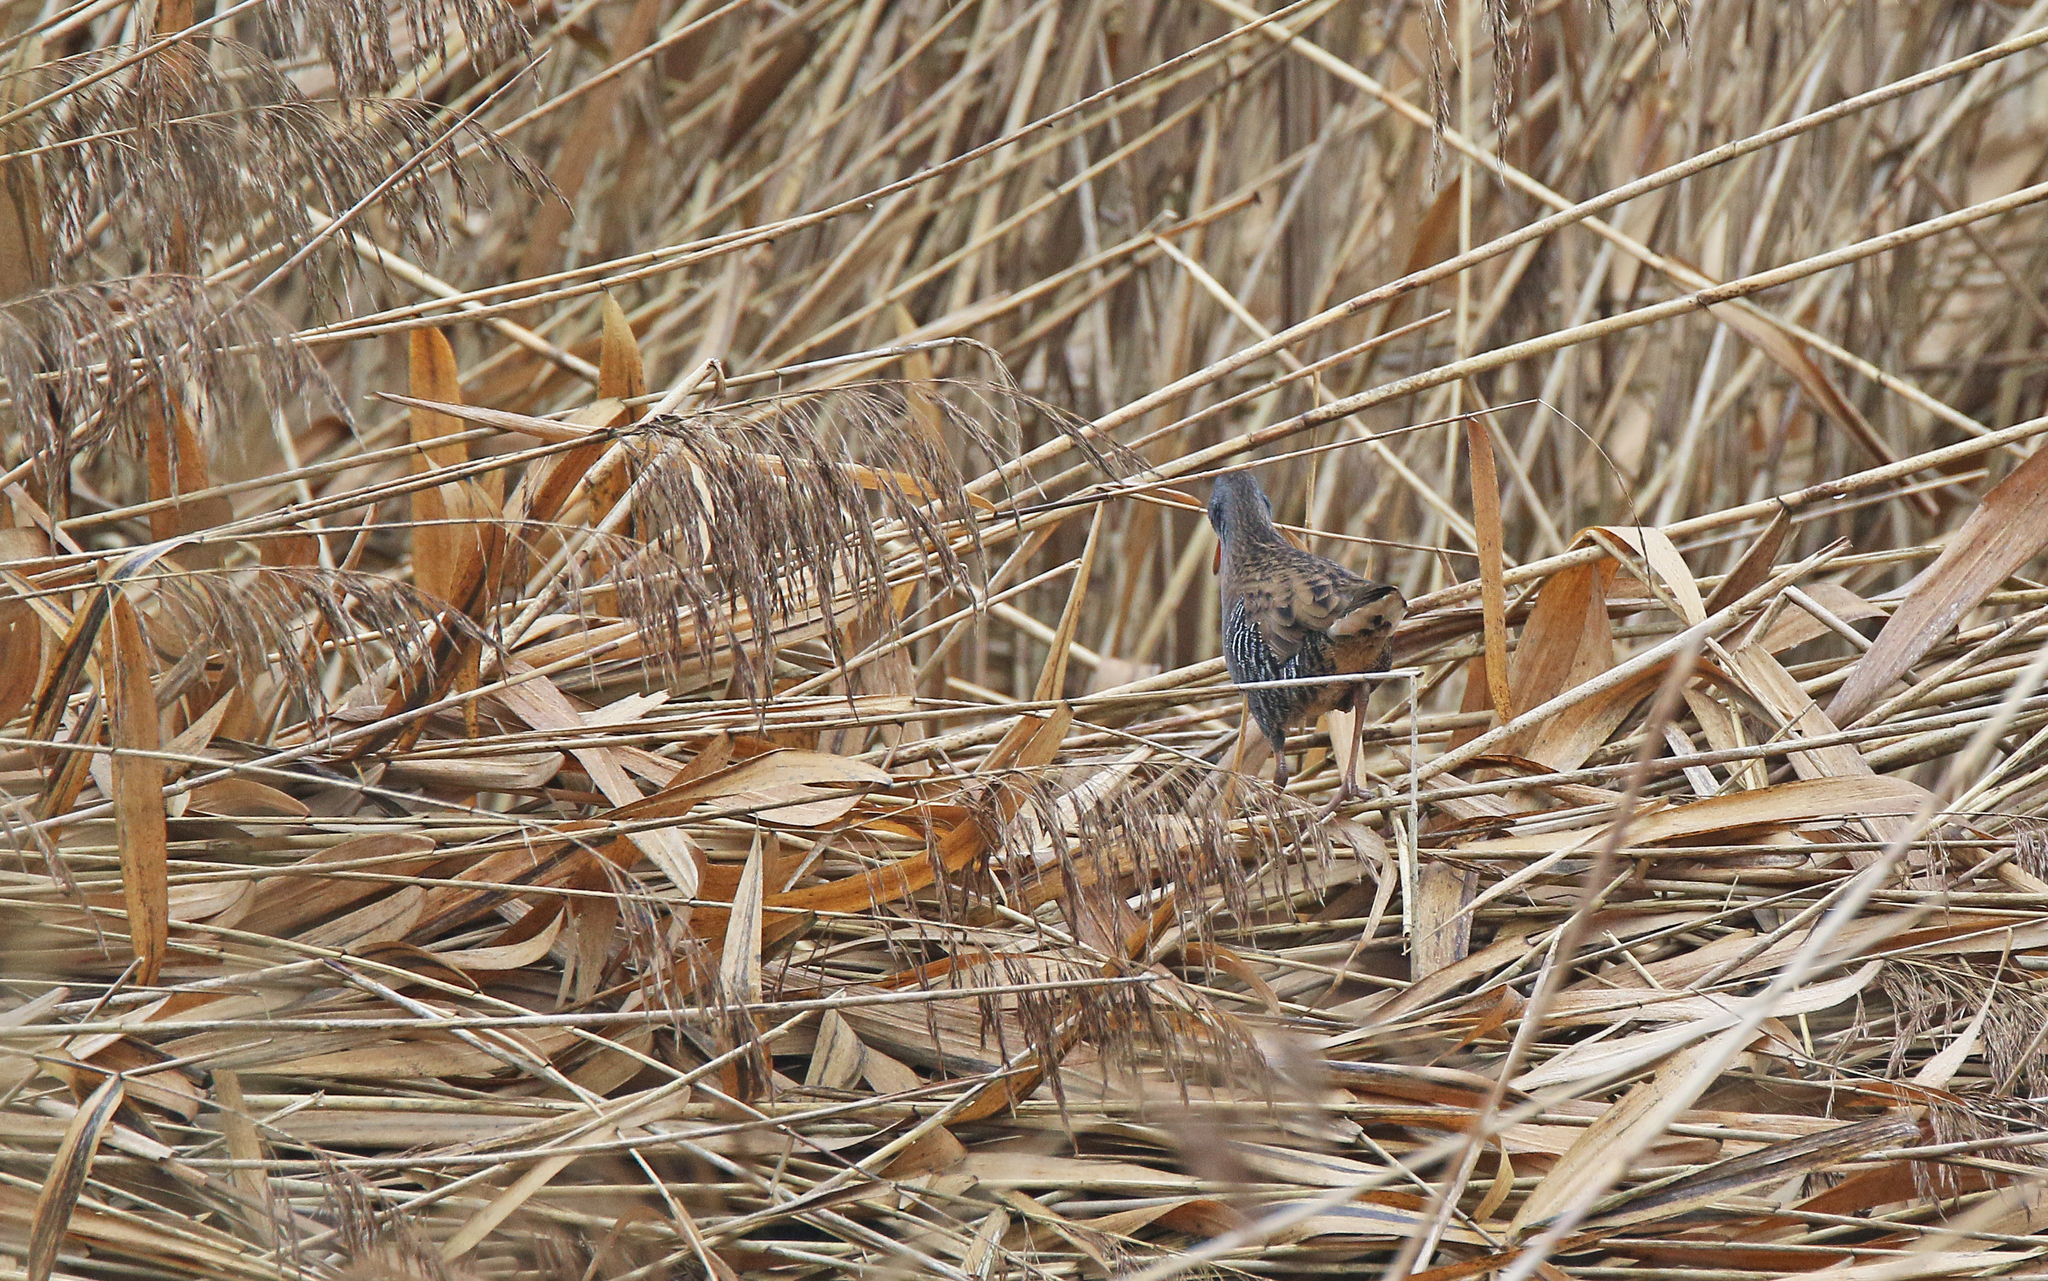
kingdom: Animalia
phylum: Chordata
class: Aves
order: Gruiformes
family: Rallidae
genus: Rallus
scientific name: Rallus aquaticus
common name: Water rail
